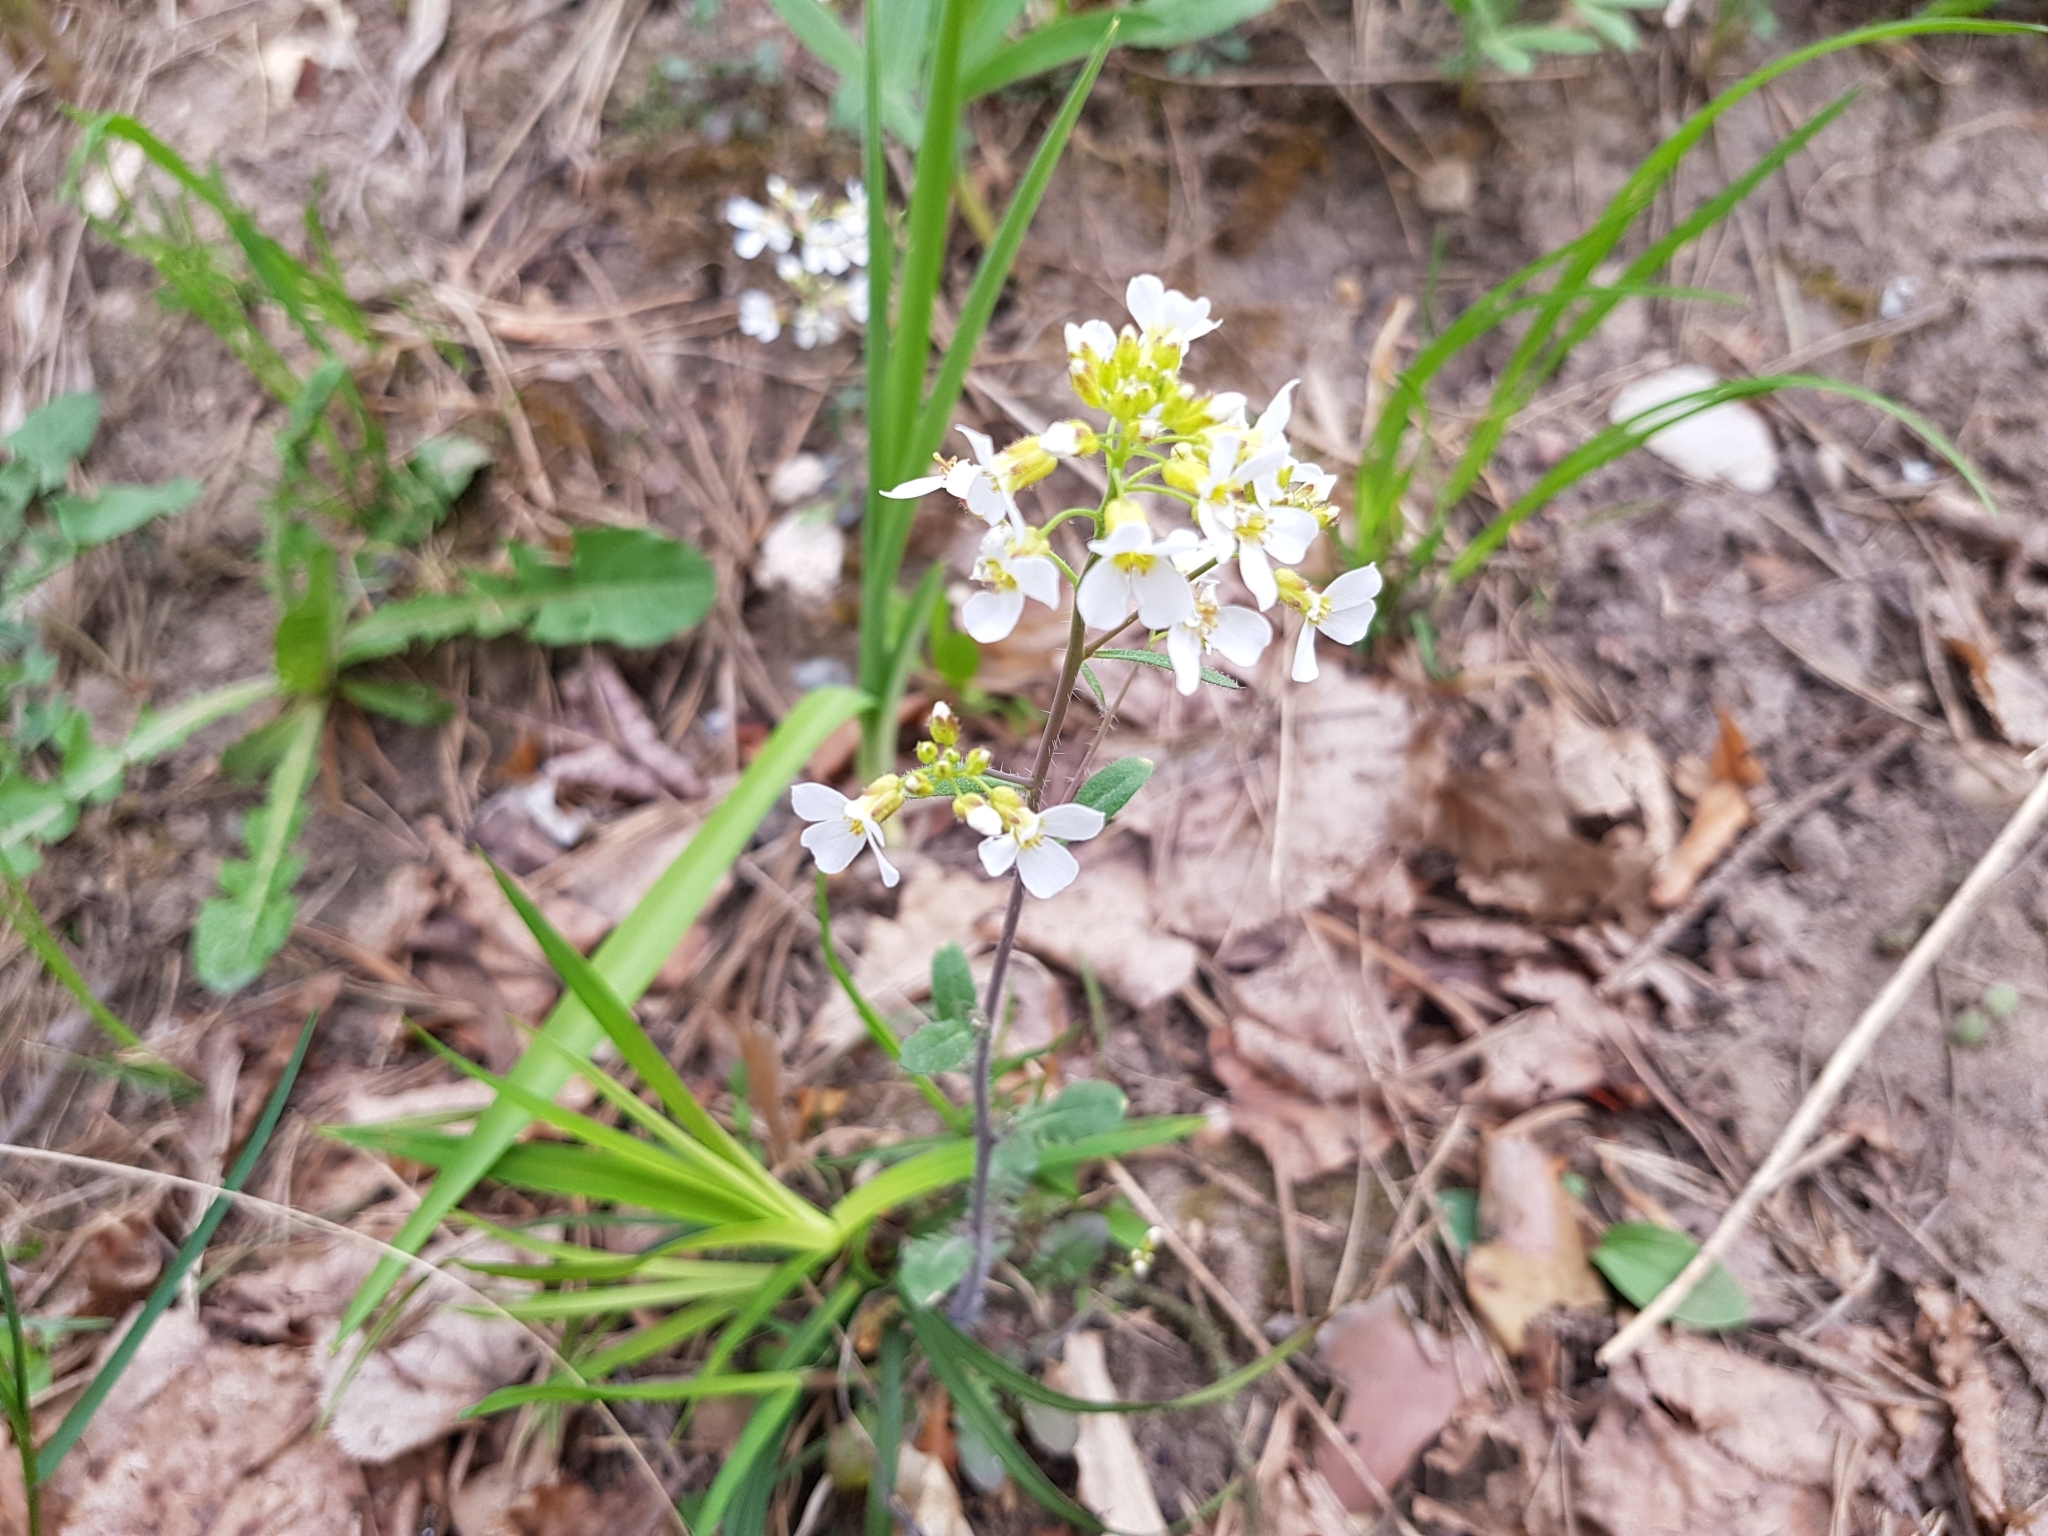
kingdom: Plantae
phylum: Tracheophyta
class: Magnoliopsida
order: Brassicales
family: Brassicaceae
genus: Arabidopsis
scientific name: Arabidopsis arenosa
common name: Sand rock-cress
